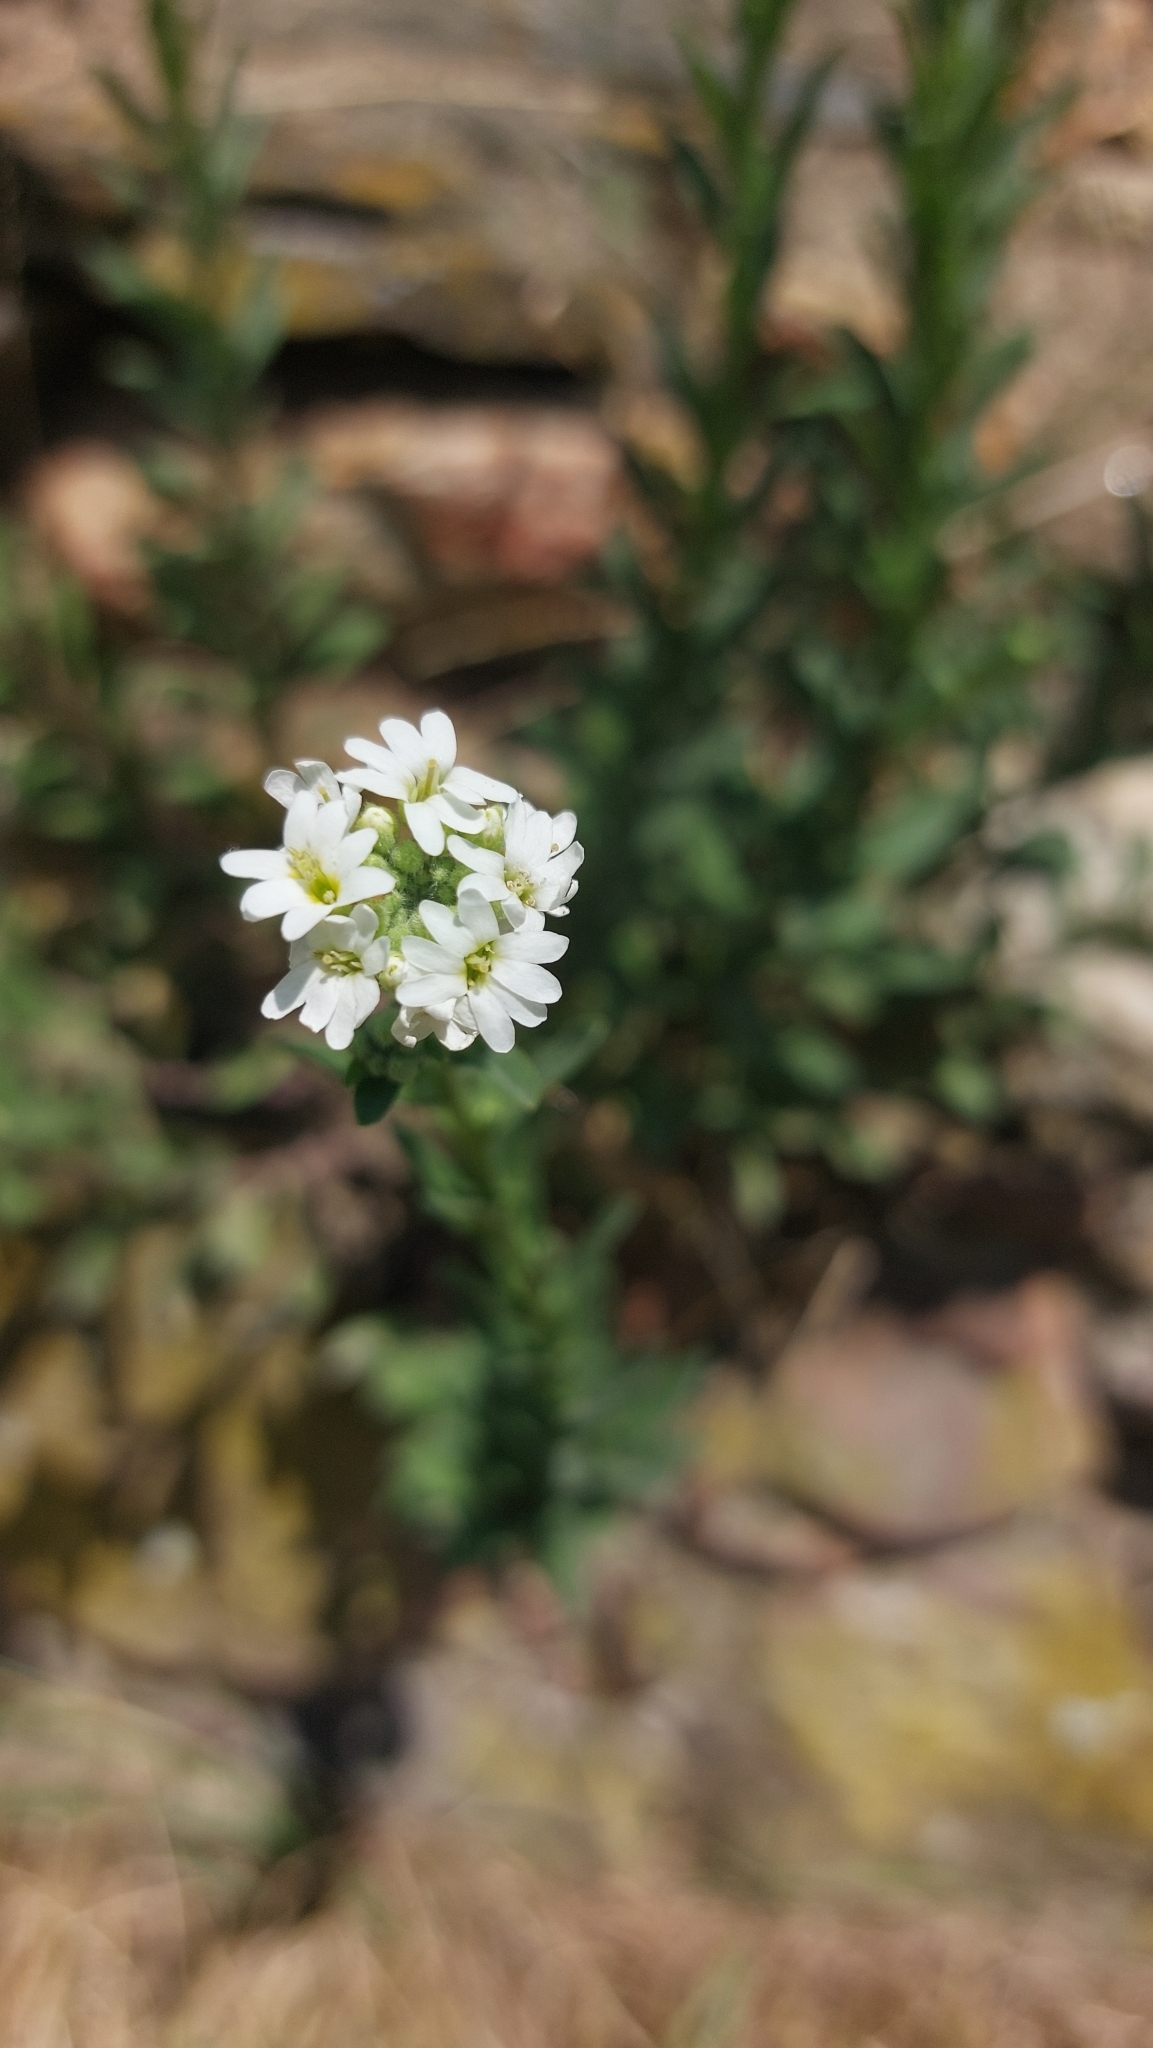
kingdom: Plantae
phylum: Tracheophyta
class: Magnoliopsida
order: Brassicales
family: Brassicaceae
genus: Berteroa
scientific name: Berteroa incana
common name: Hoary alison
